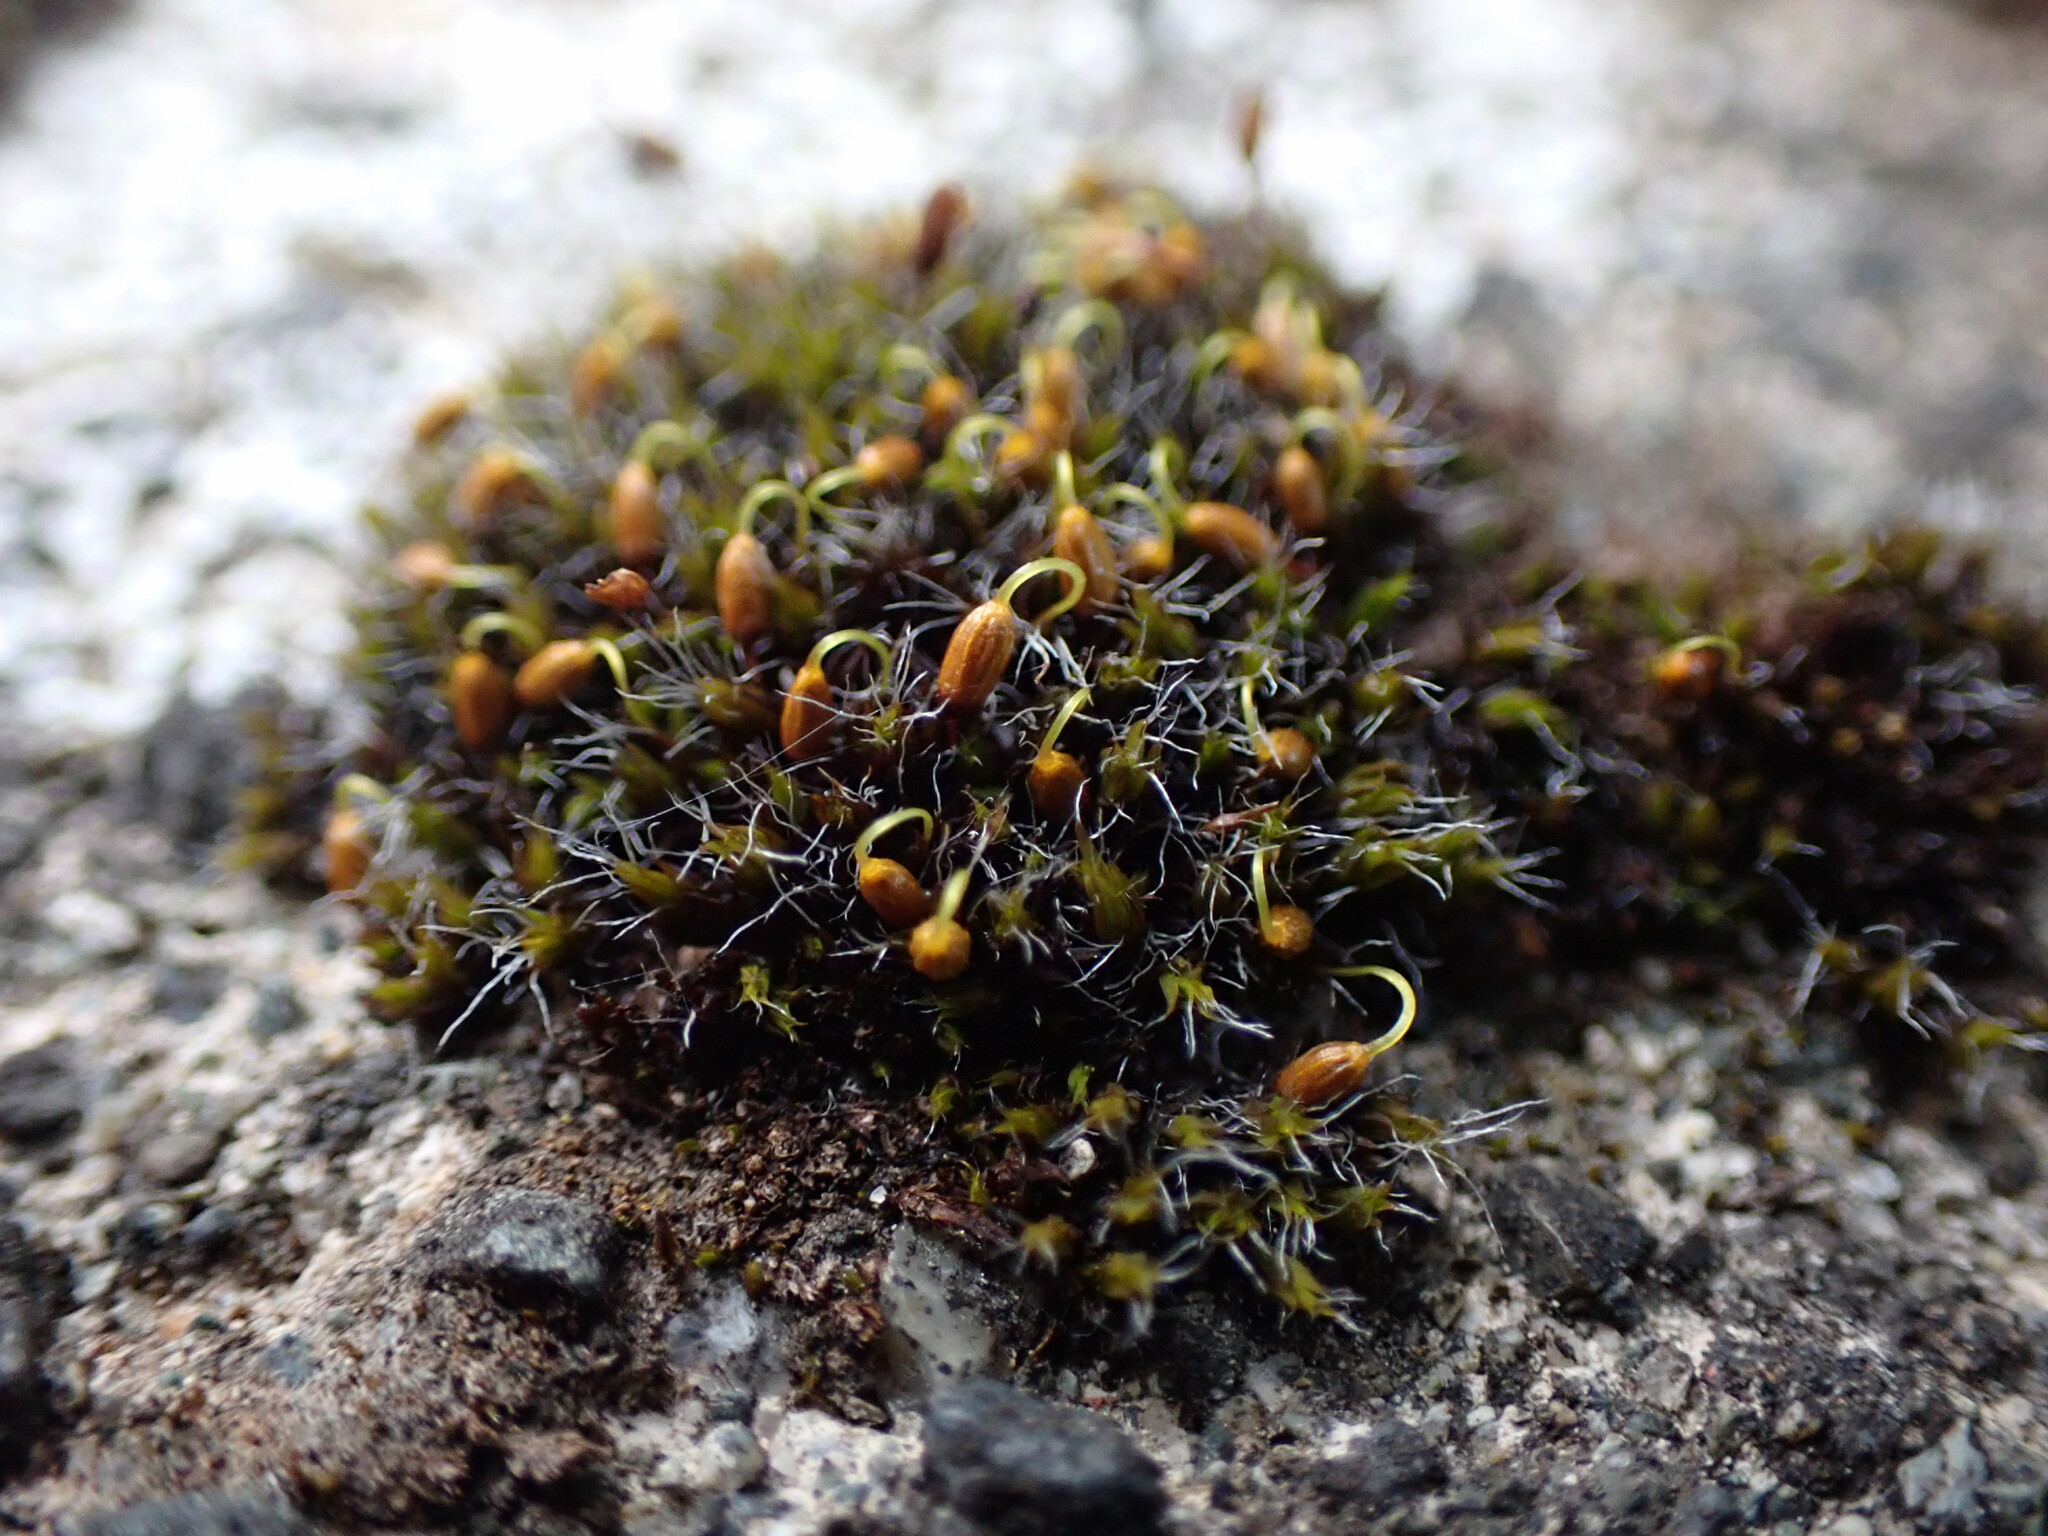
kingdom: Plantae
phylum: Bryophyta
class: Bryopsida
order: Grimmiales
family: Grimmiaceae
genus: Grimmia
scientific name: Grimmia pulvinata
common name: Grey-cushioned grimmia
